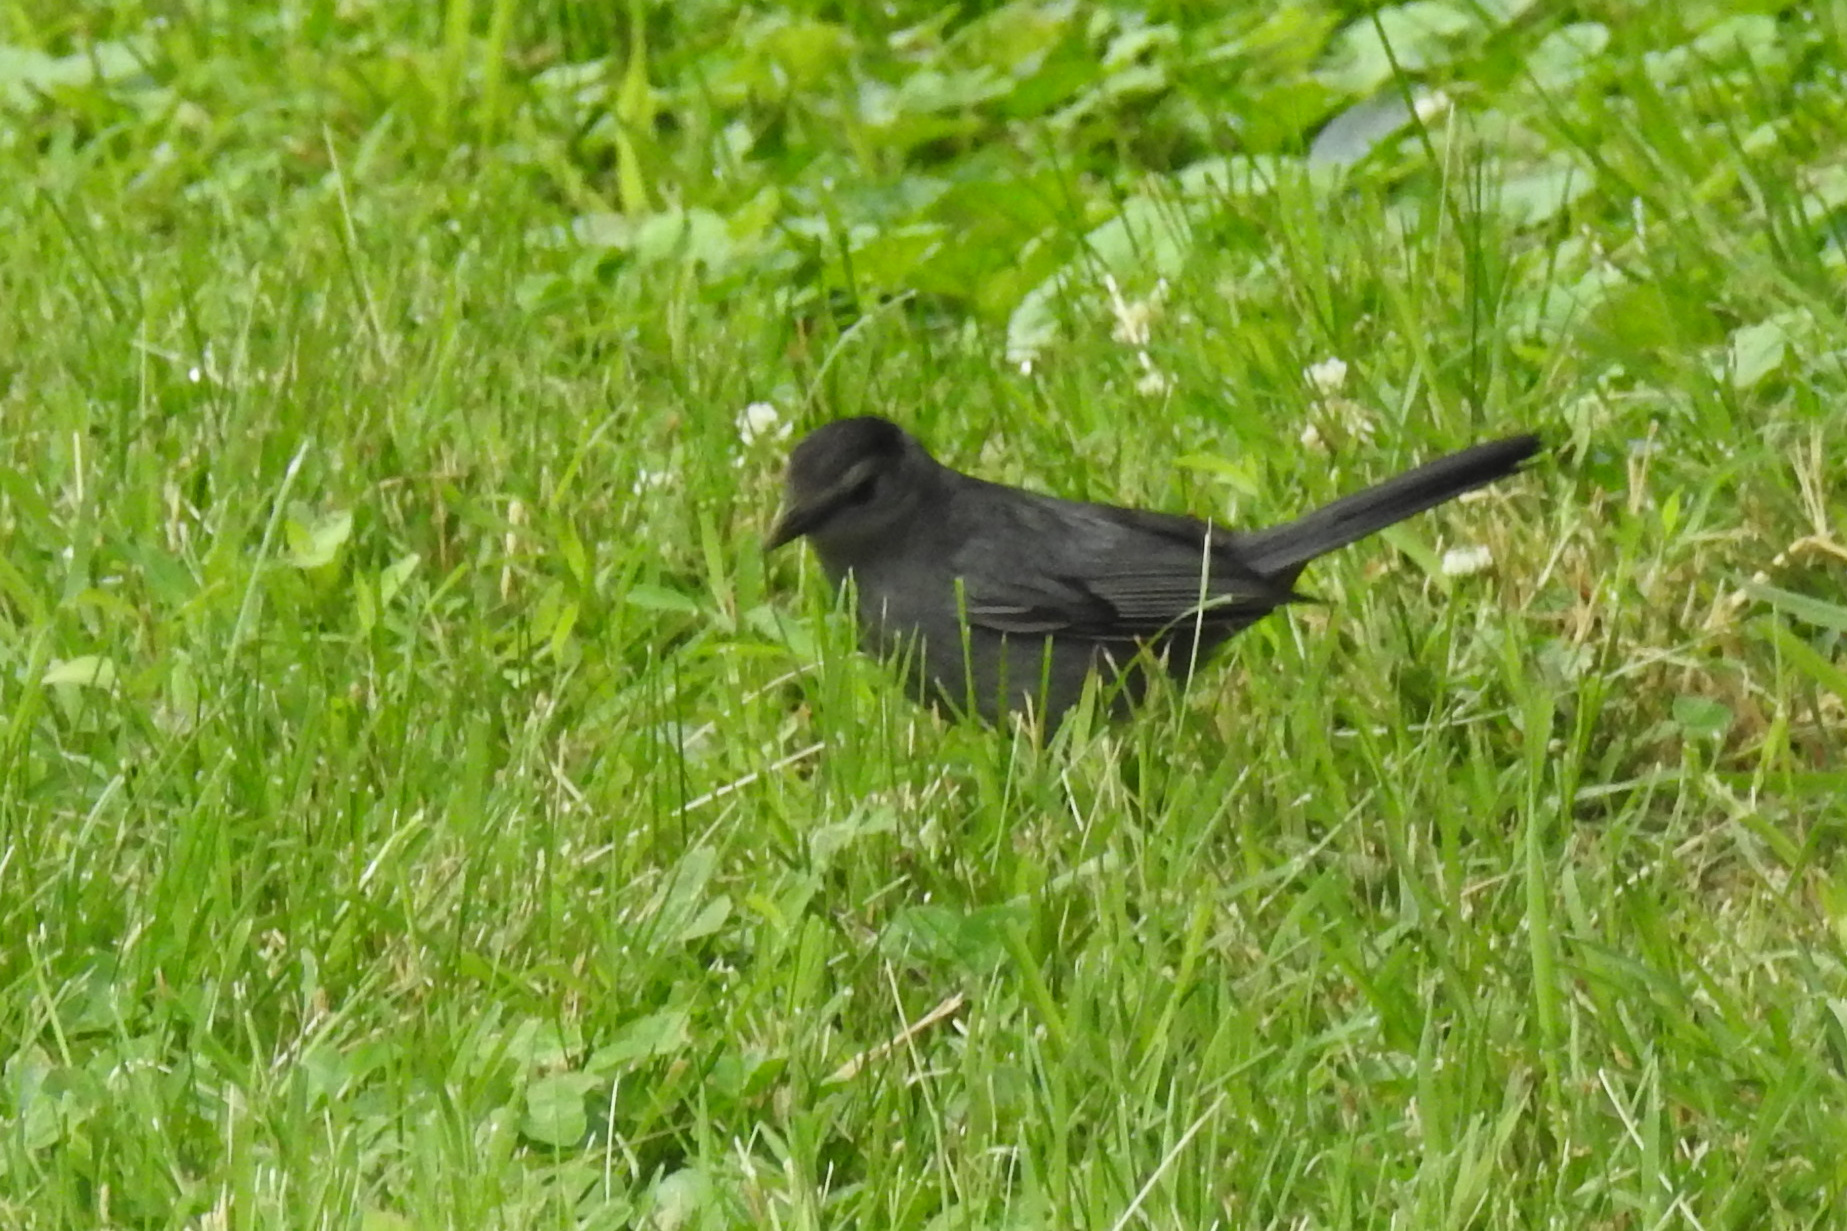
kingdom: Animalia
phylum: Chordata
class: Aves
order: Passeriformes
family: Mimidae
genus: Dumetella
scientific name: Dumetella carolinensis
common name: Gray catbird
